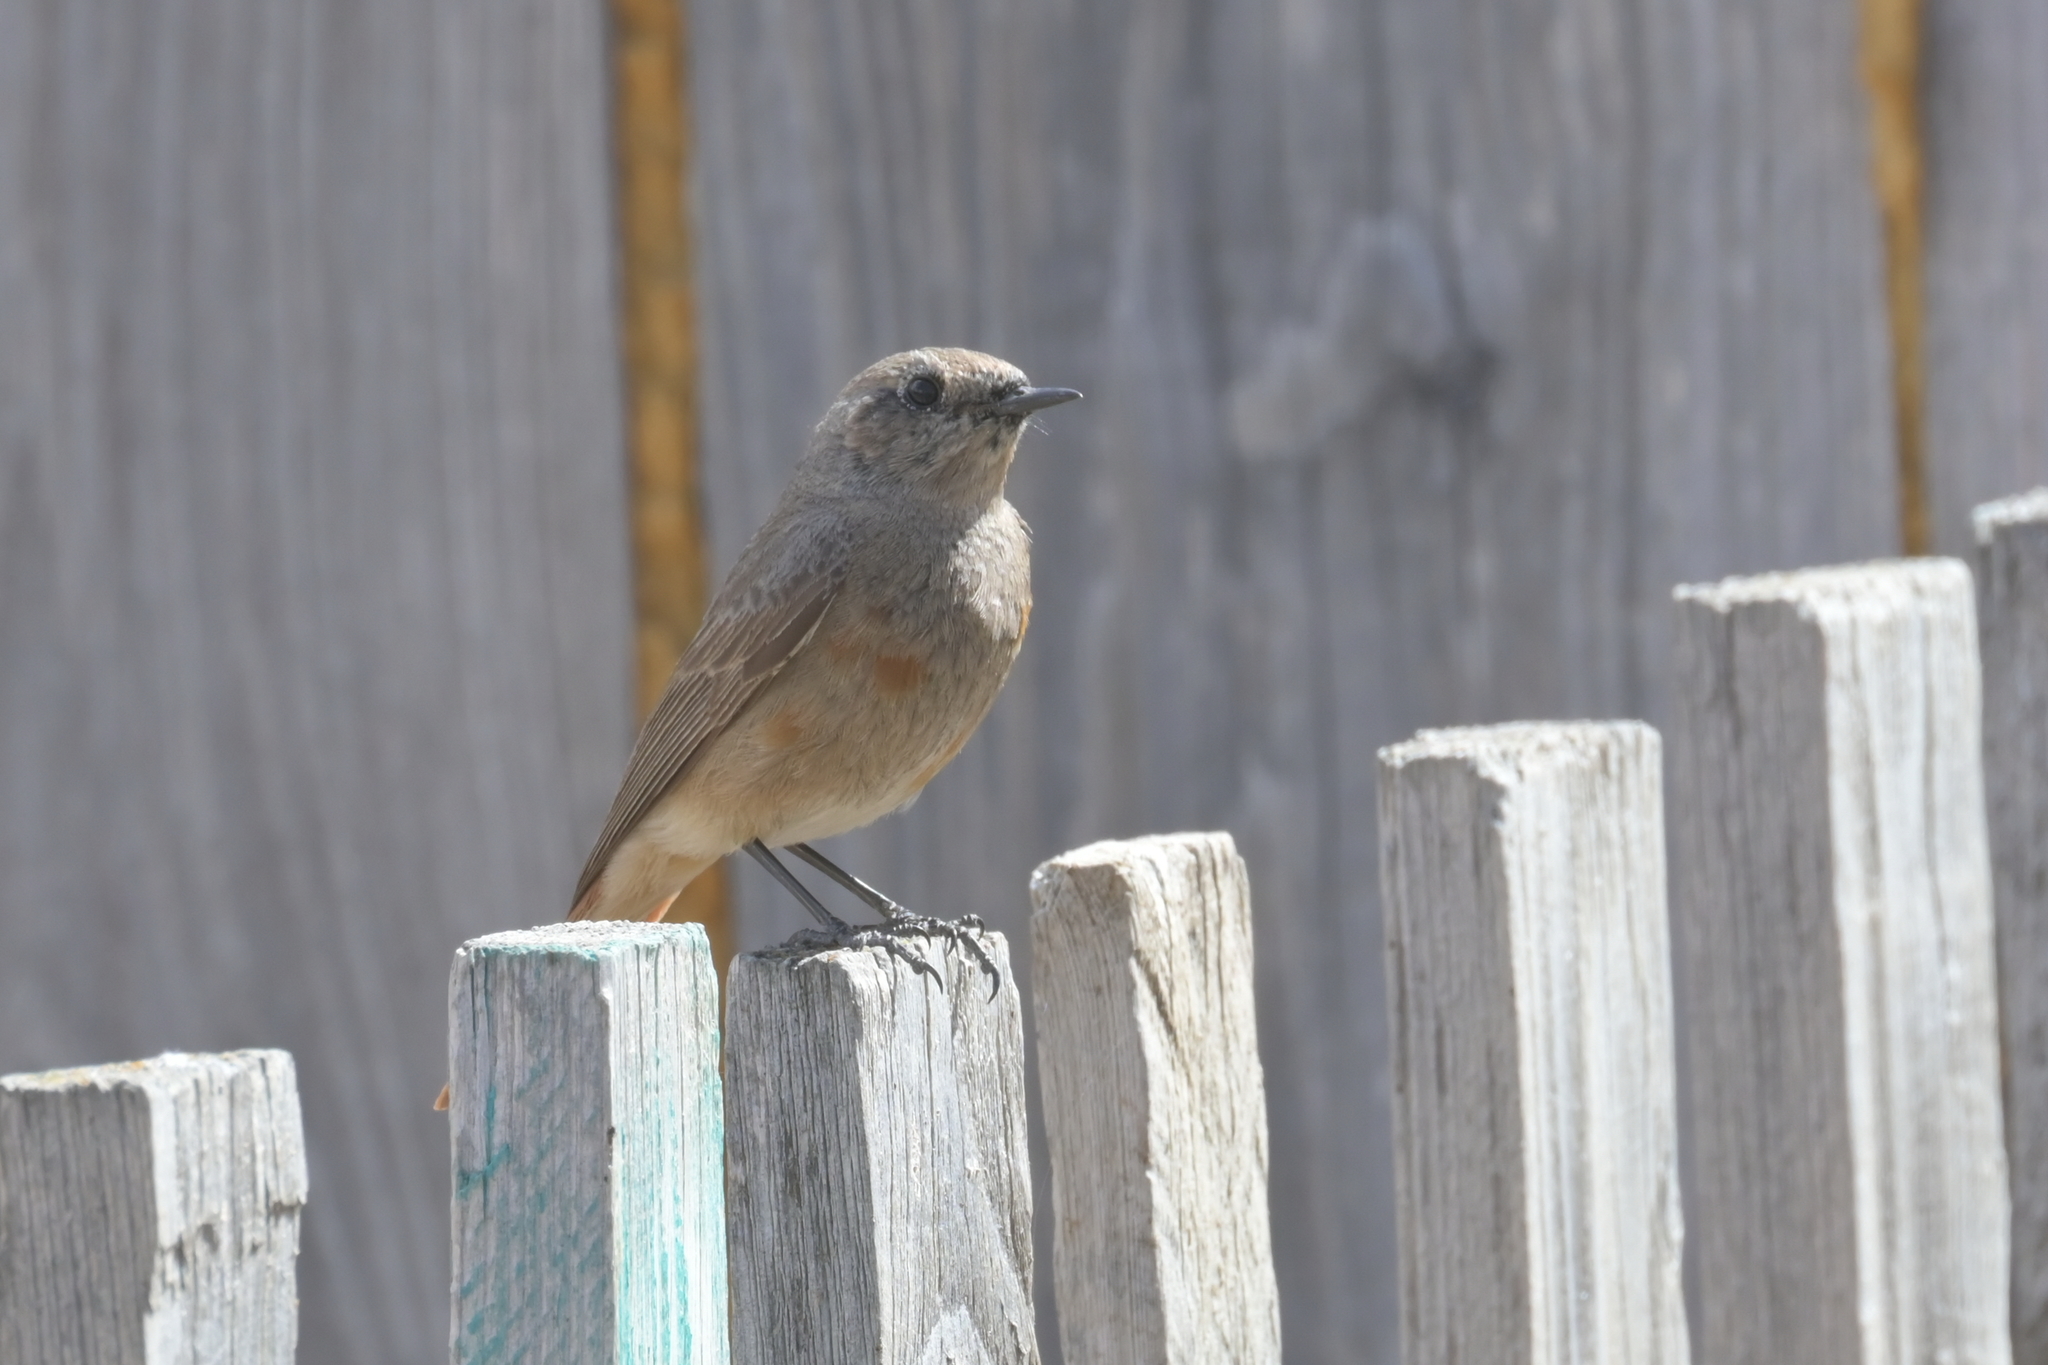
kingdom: Animalia
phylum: Chordata
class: Aves
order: Passeriformes
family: Muscicapidae
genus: Phoenicurus
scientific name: Phoenicurus ochruros
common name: Black redstart
